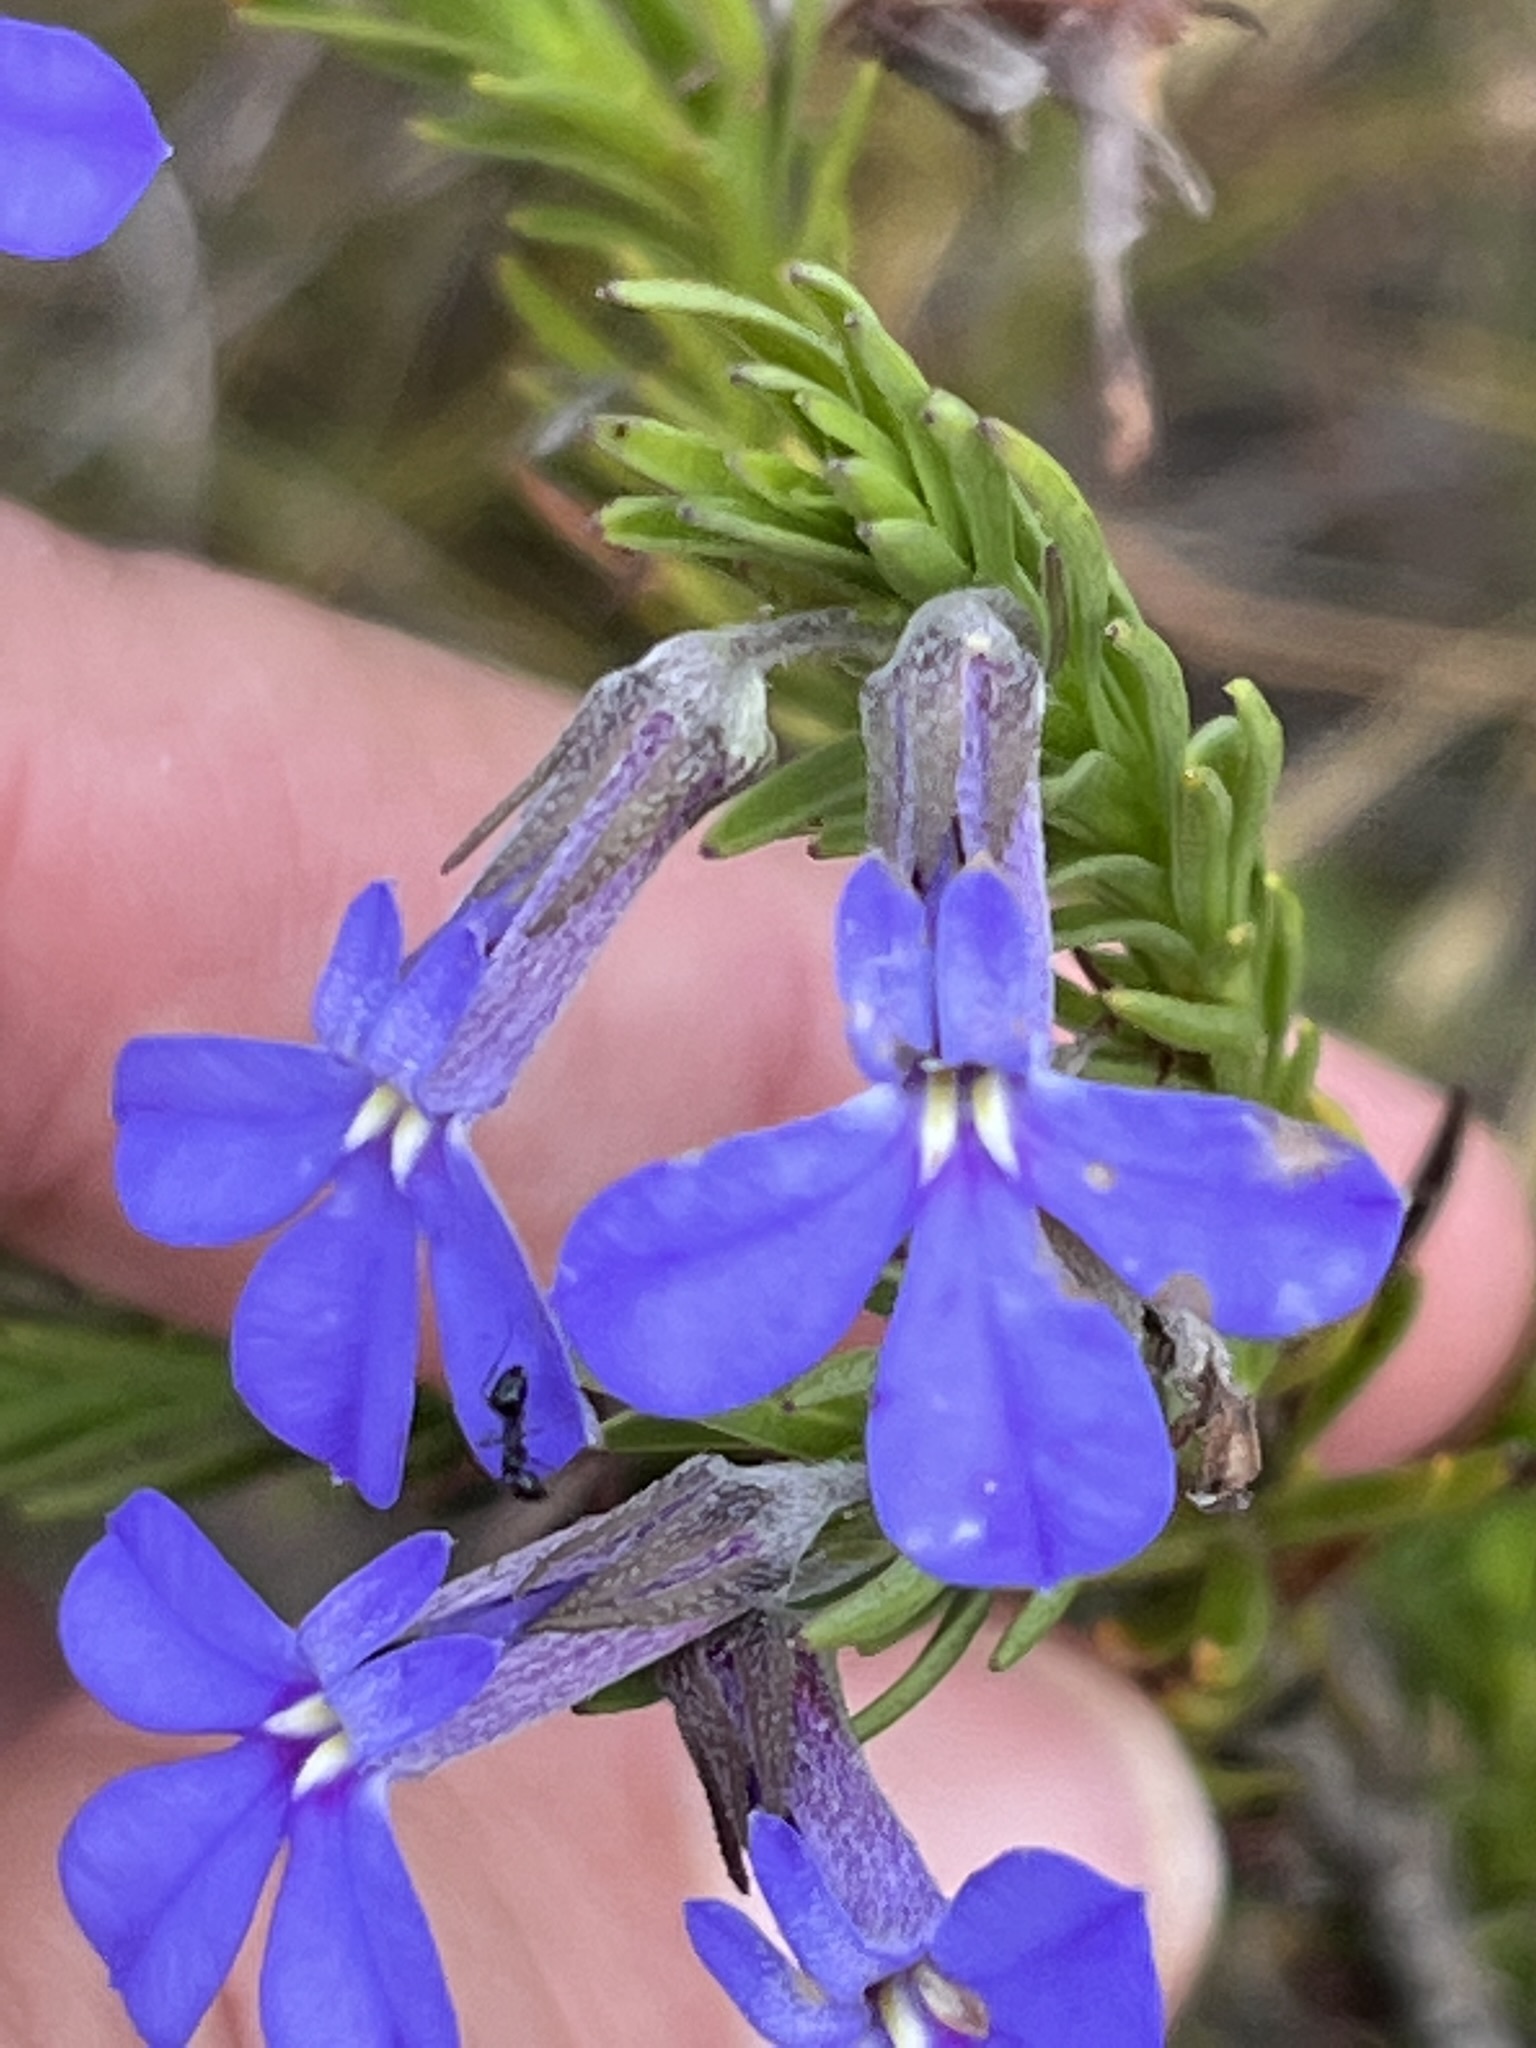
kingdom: Plantae
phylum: Tracheophyta
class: Magnoliopsida
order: Asterales
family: Campanulaceae
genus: Lobelia
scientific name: Lobelia pinifolia
